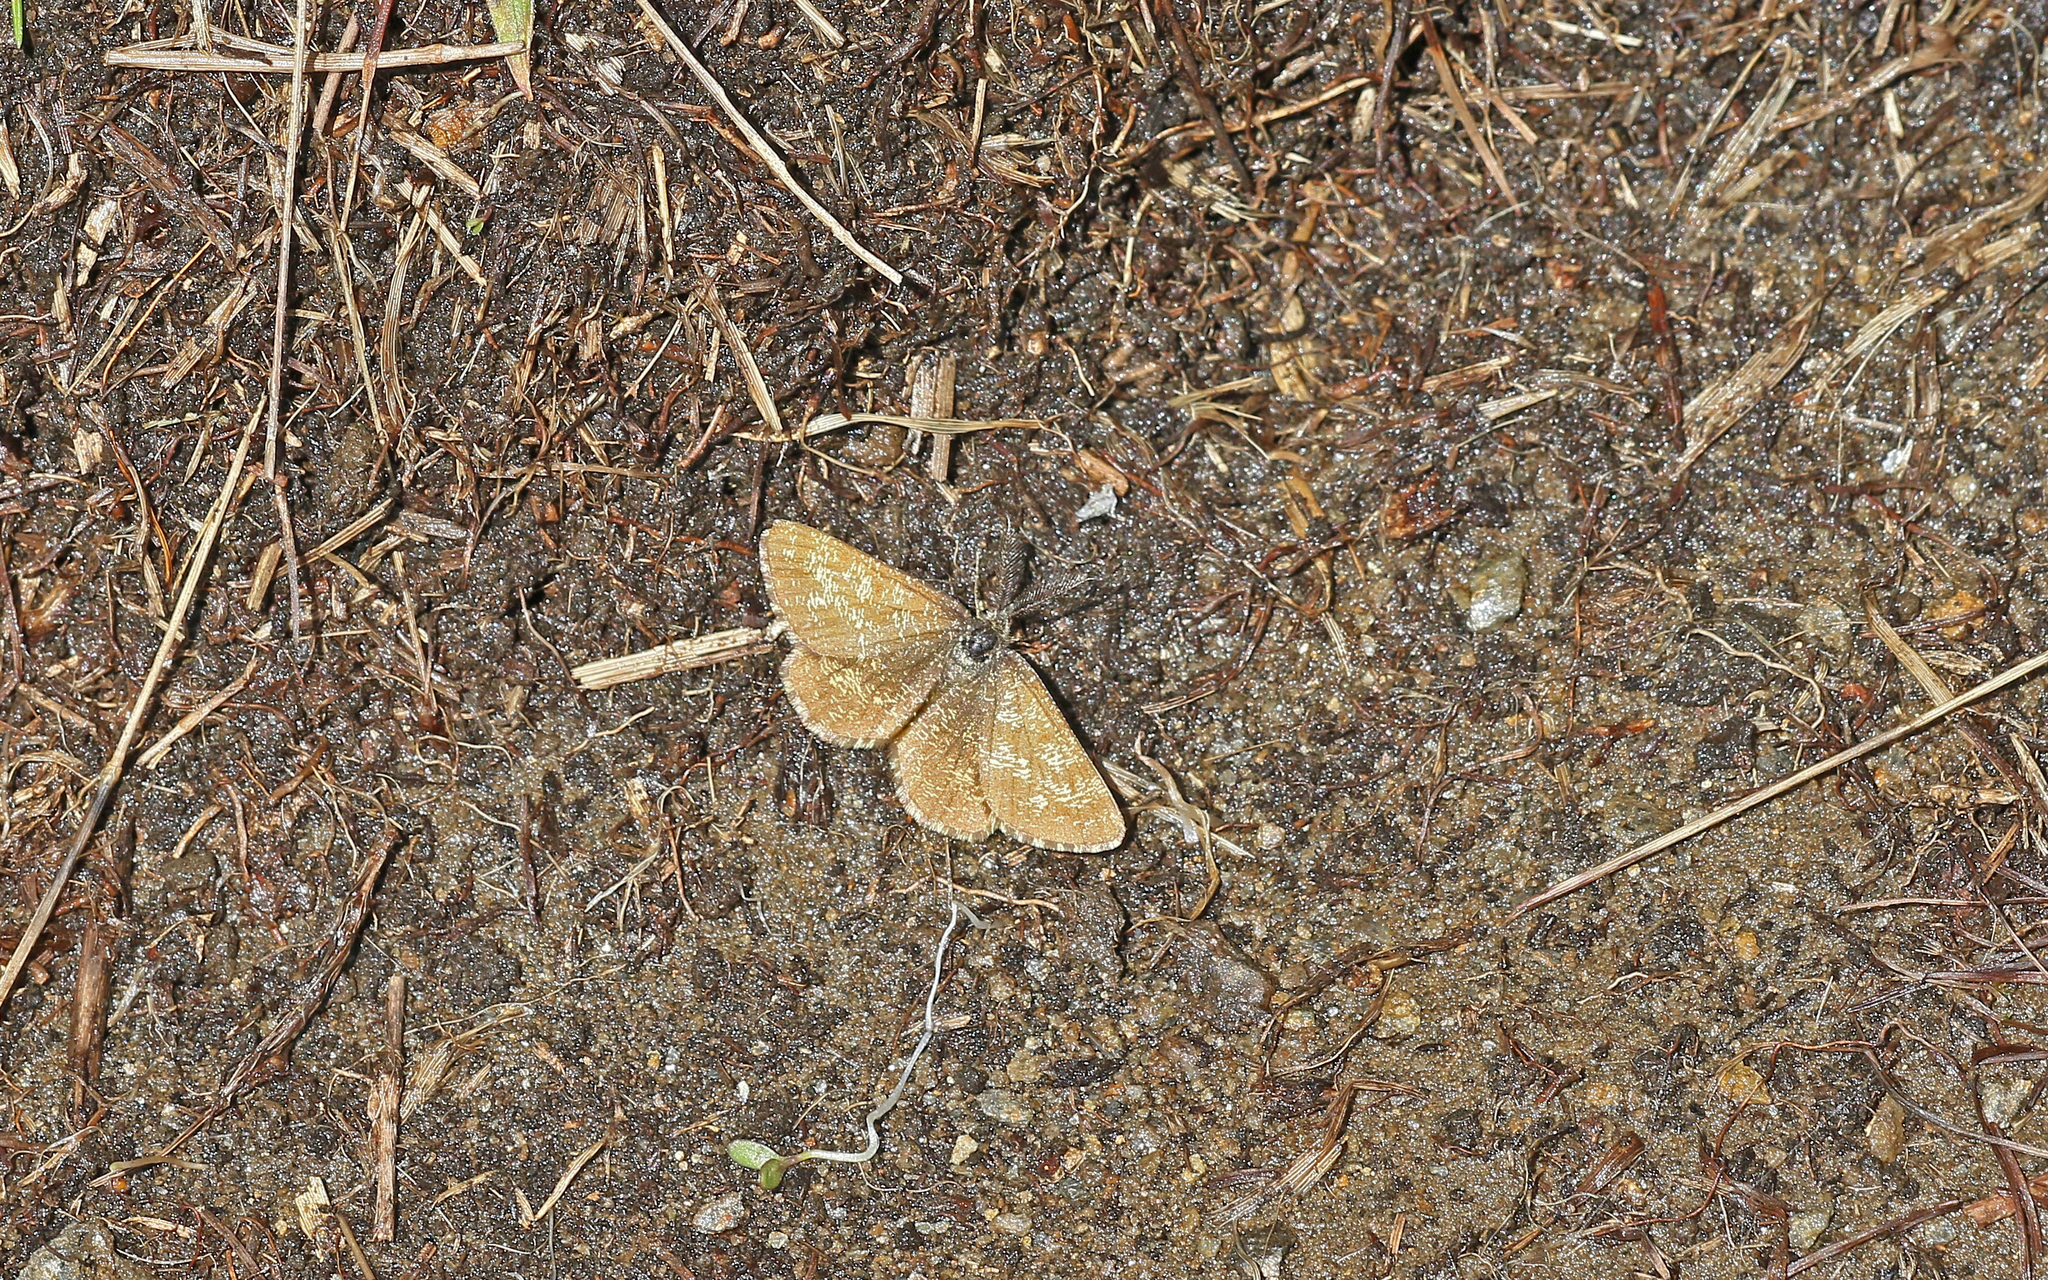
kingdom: Animalia
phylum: Arthropoda
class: Insecta
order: Lepidoptera
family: Geometridae
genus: Ematurga
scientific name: Ematurga atomaria
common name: Common heath
